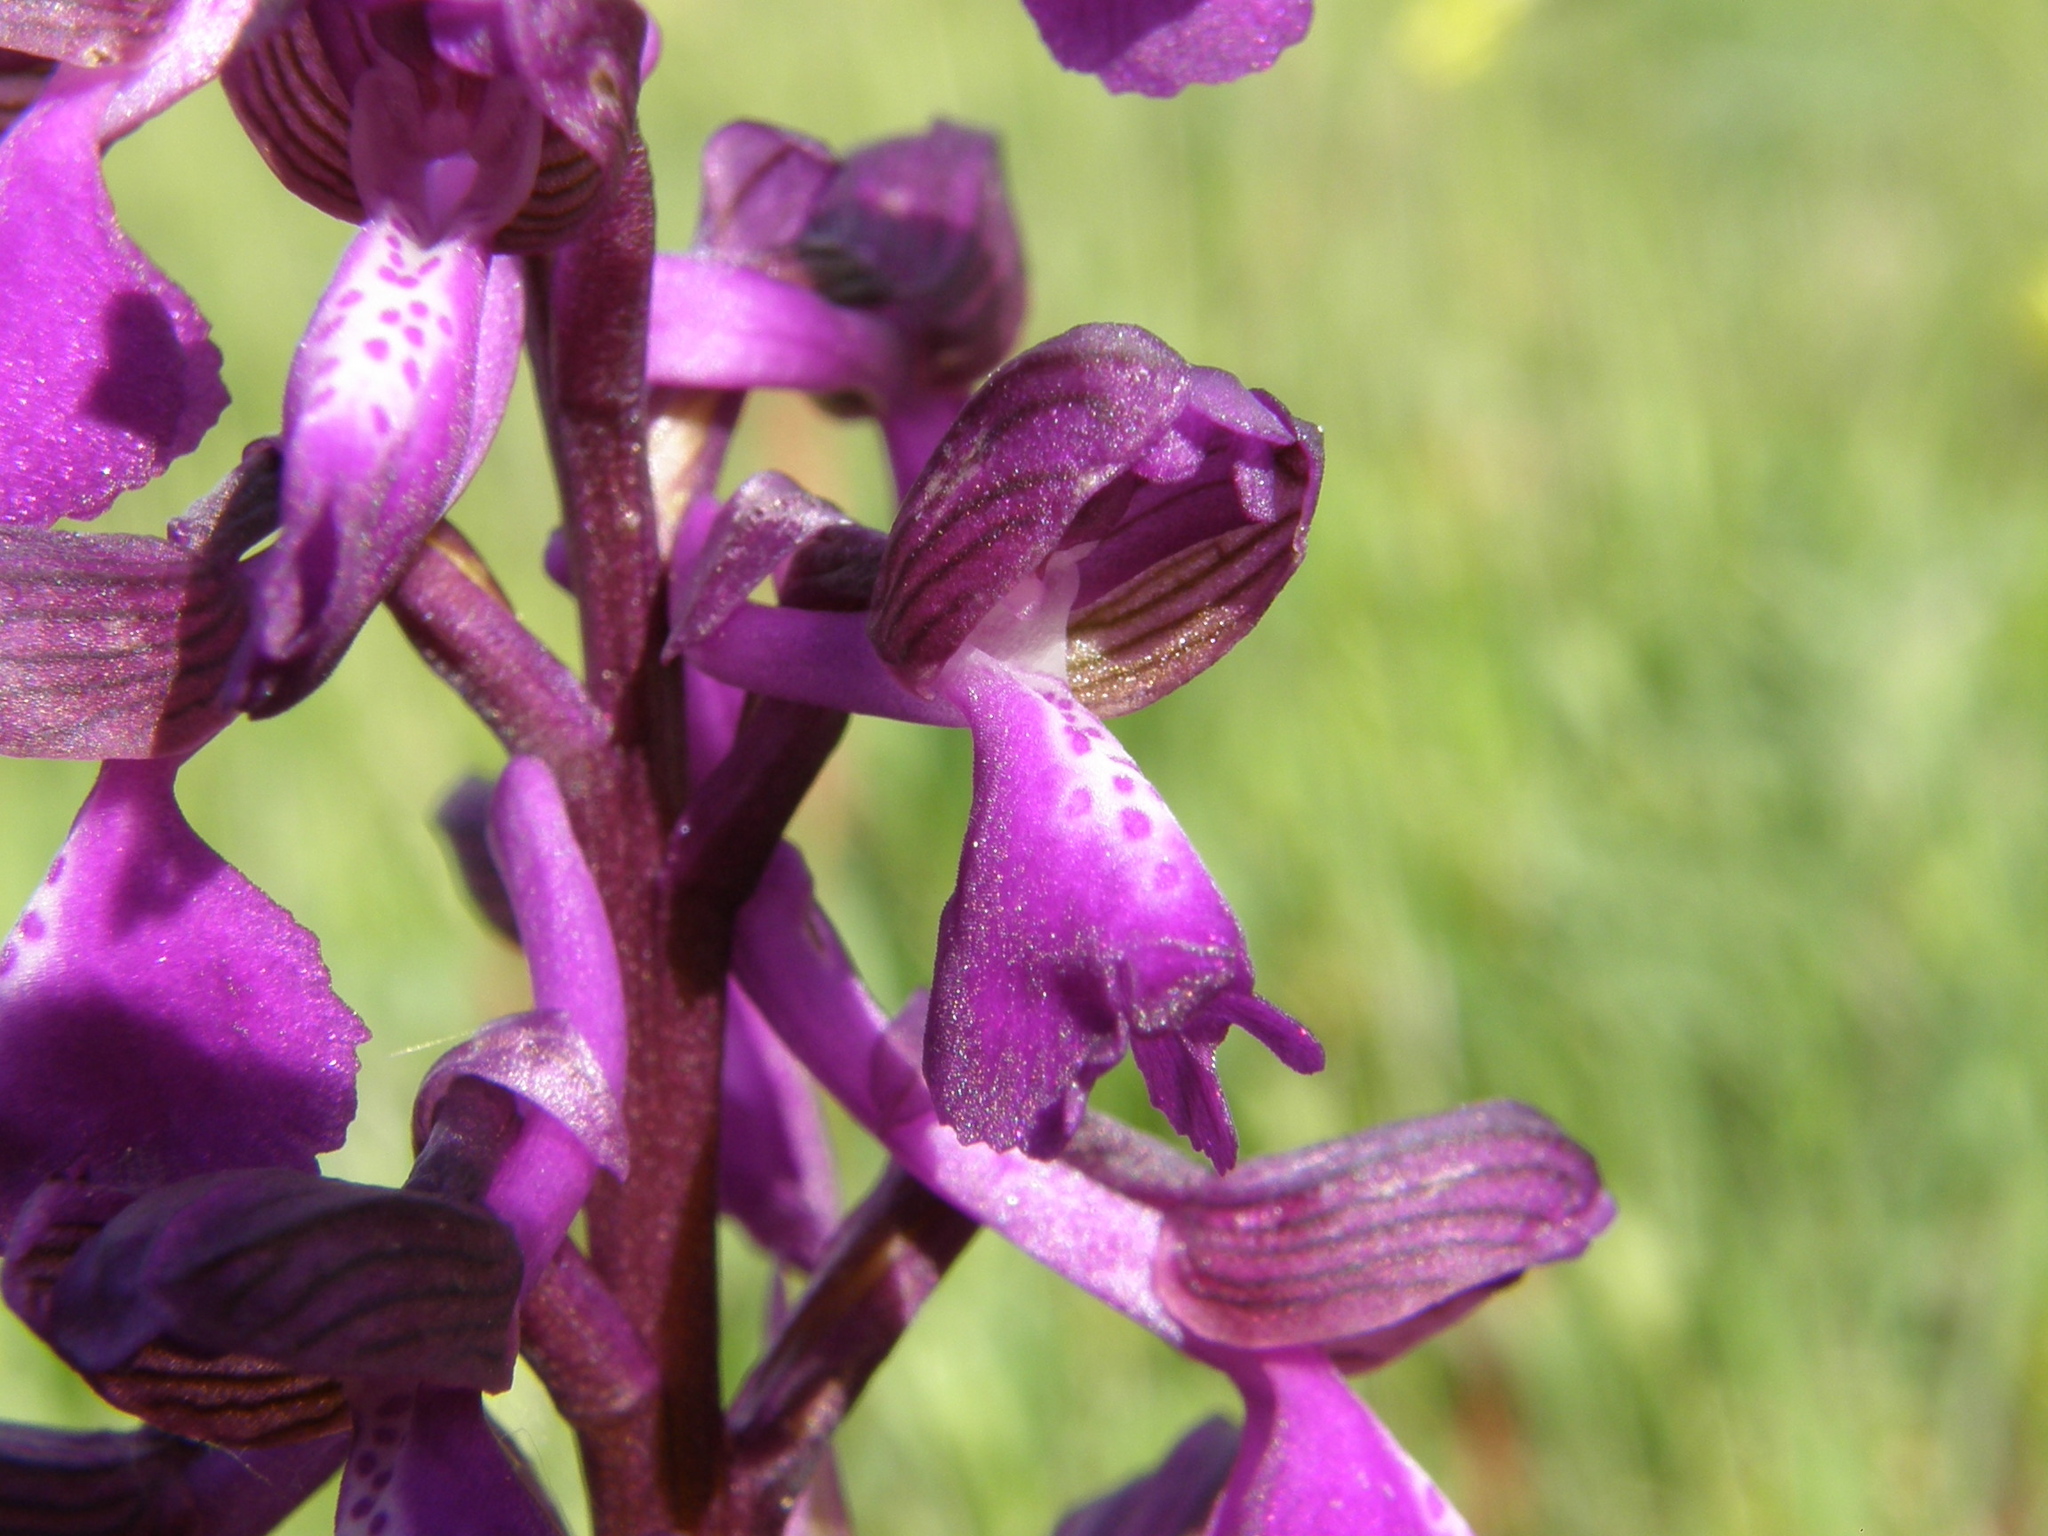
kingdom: Plantae
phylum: Tracheophyta
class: Liliopsida
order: Asparagales
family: Orchidaceae
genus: Anacamptis
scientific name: Anacamptis morio
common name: Green-winged orchid
